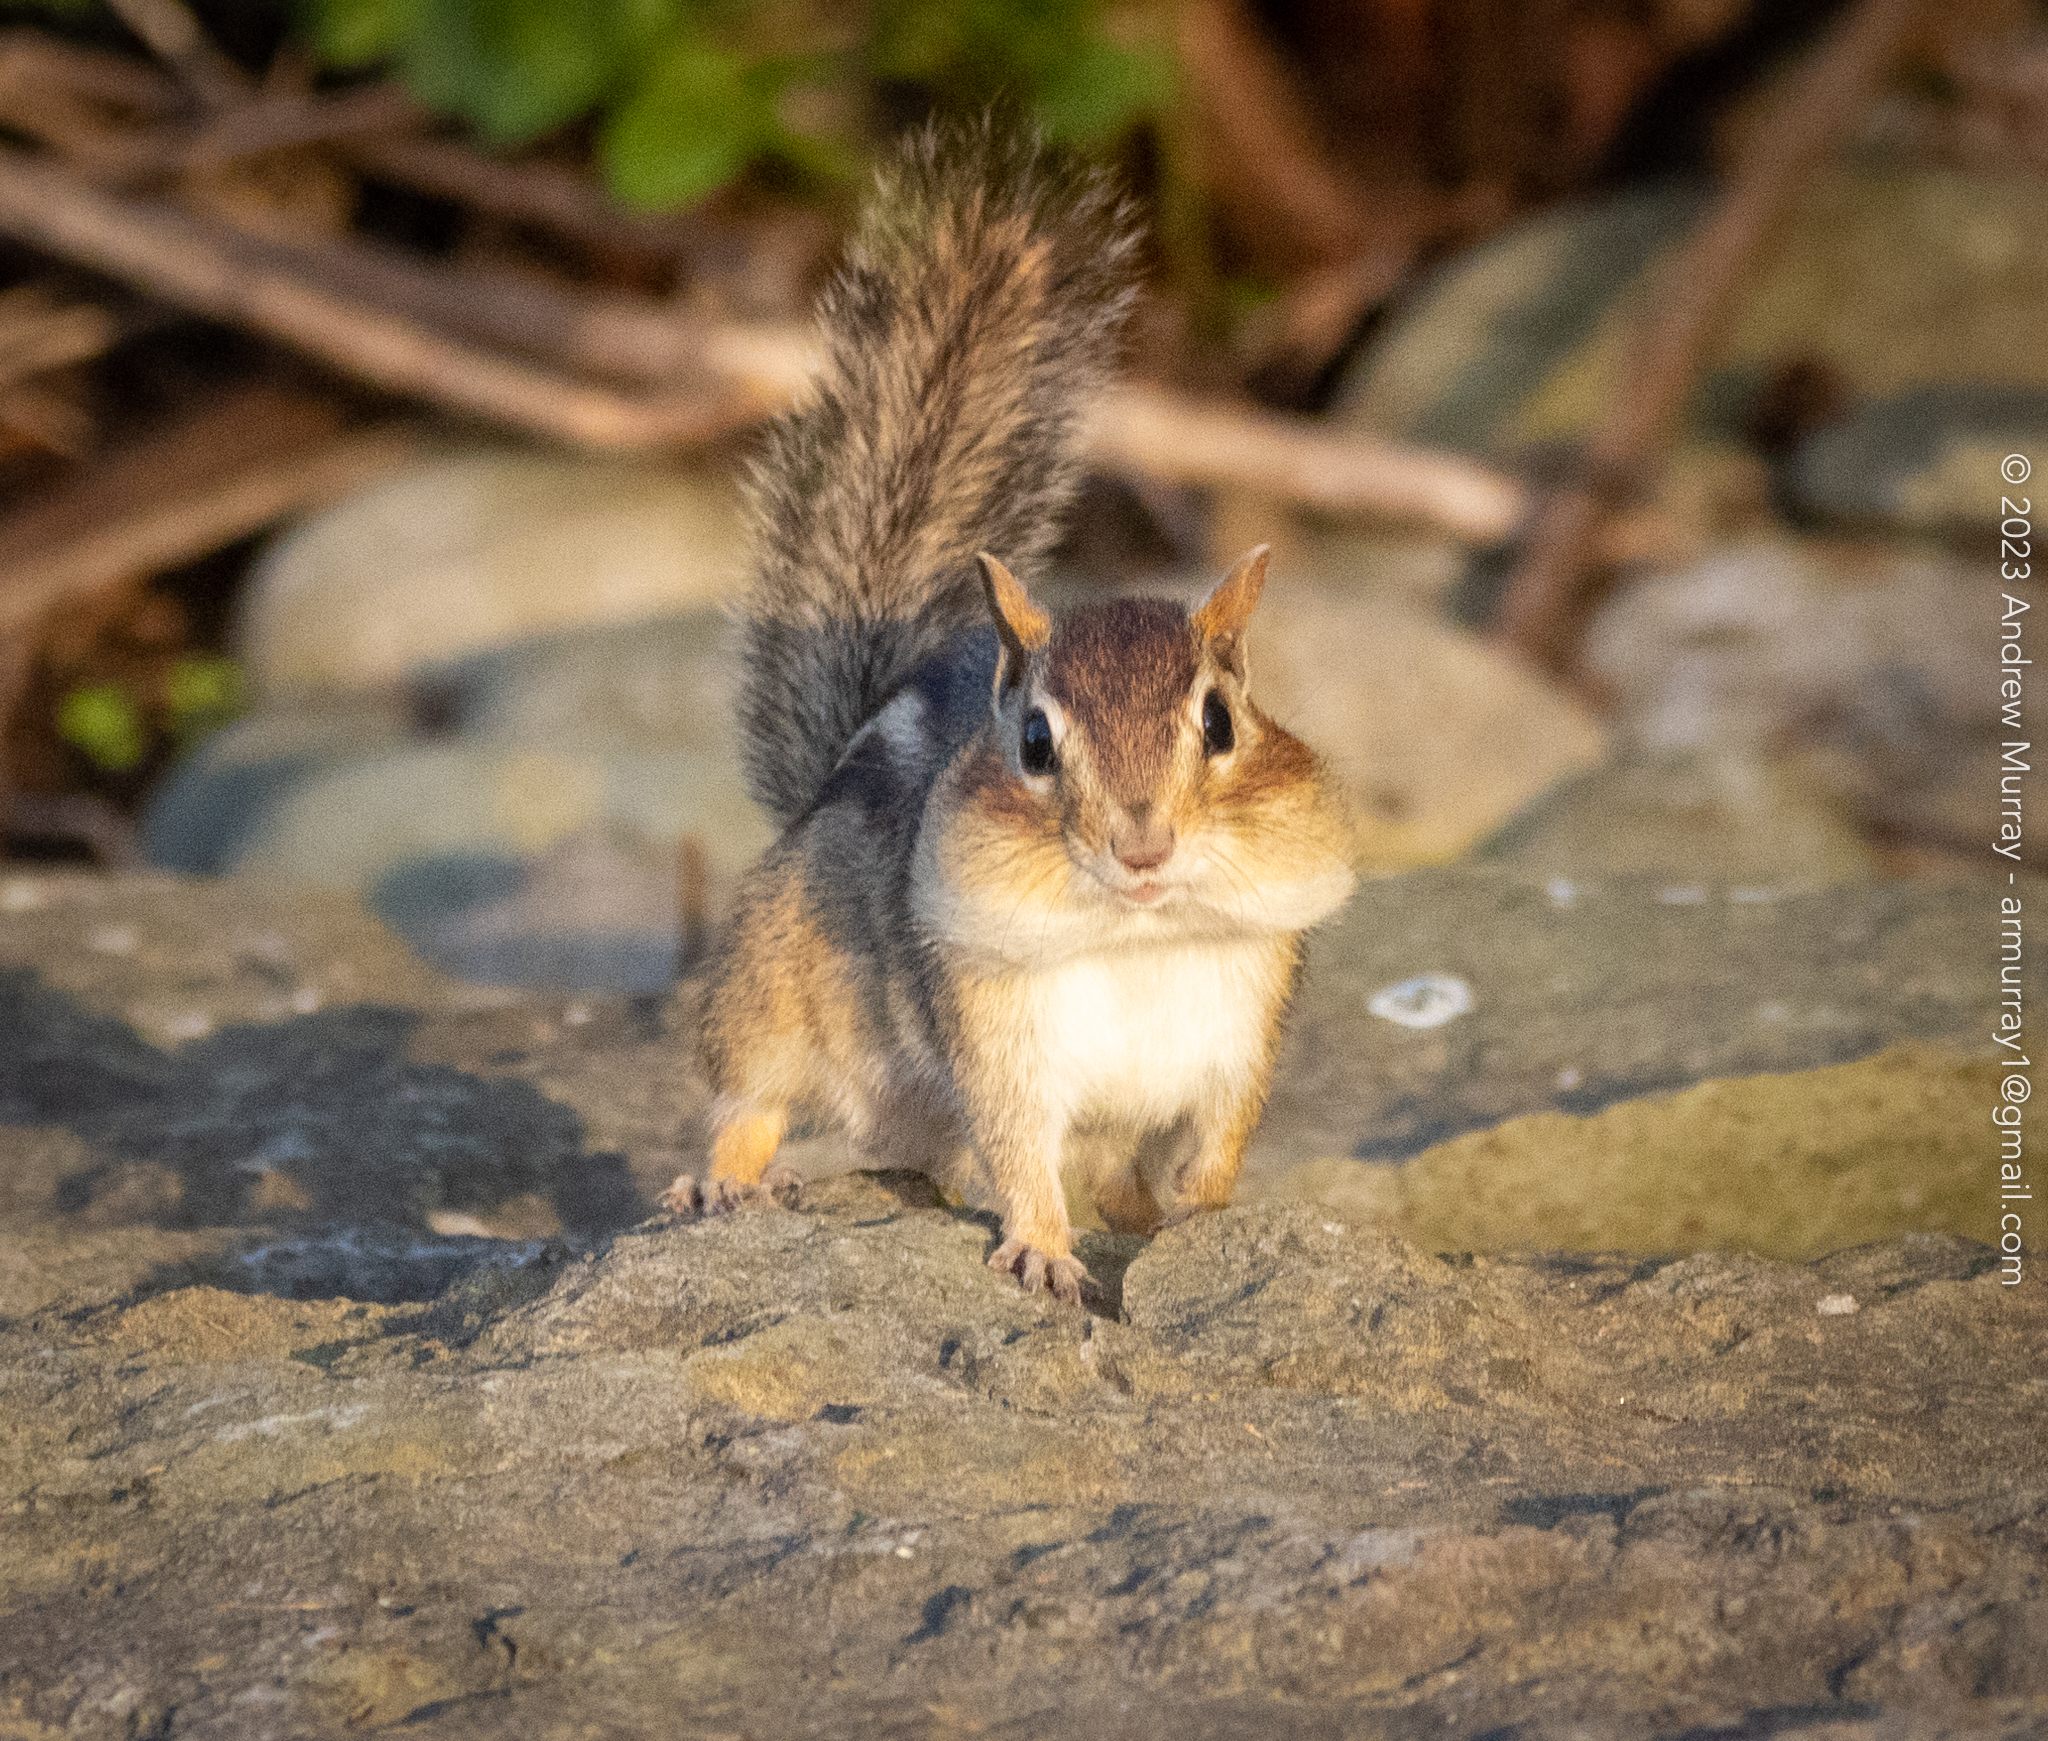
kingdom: Animalia
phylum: Chordata
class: Mammalia
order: Rodentia
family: Sciuridae
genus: Tamias
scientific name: Tamias striatus
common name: Eastern chipmunk
